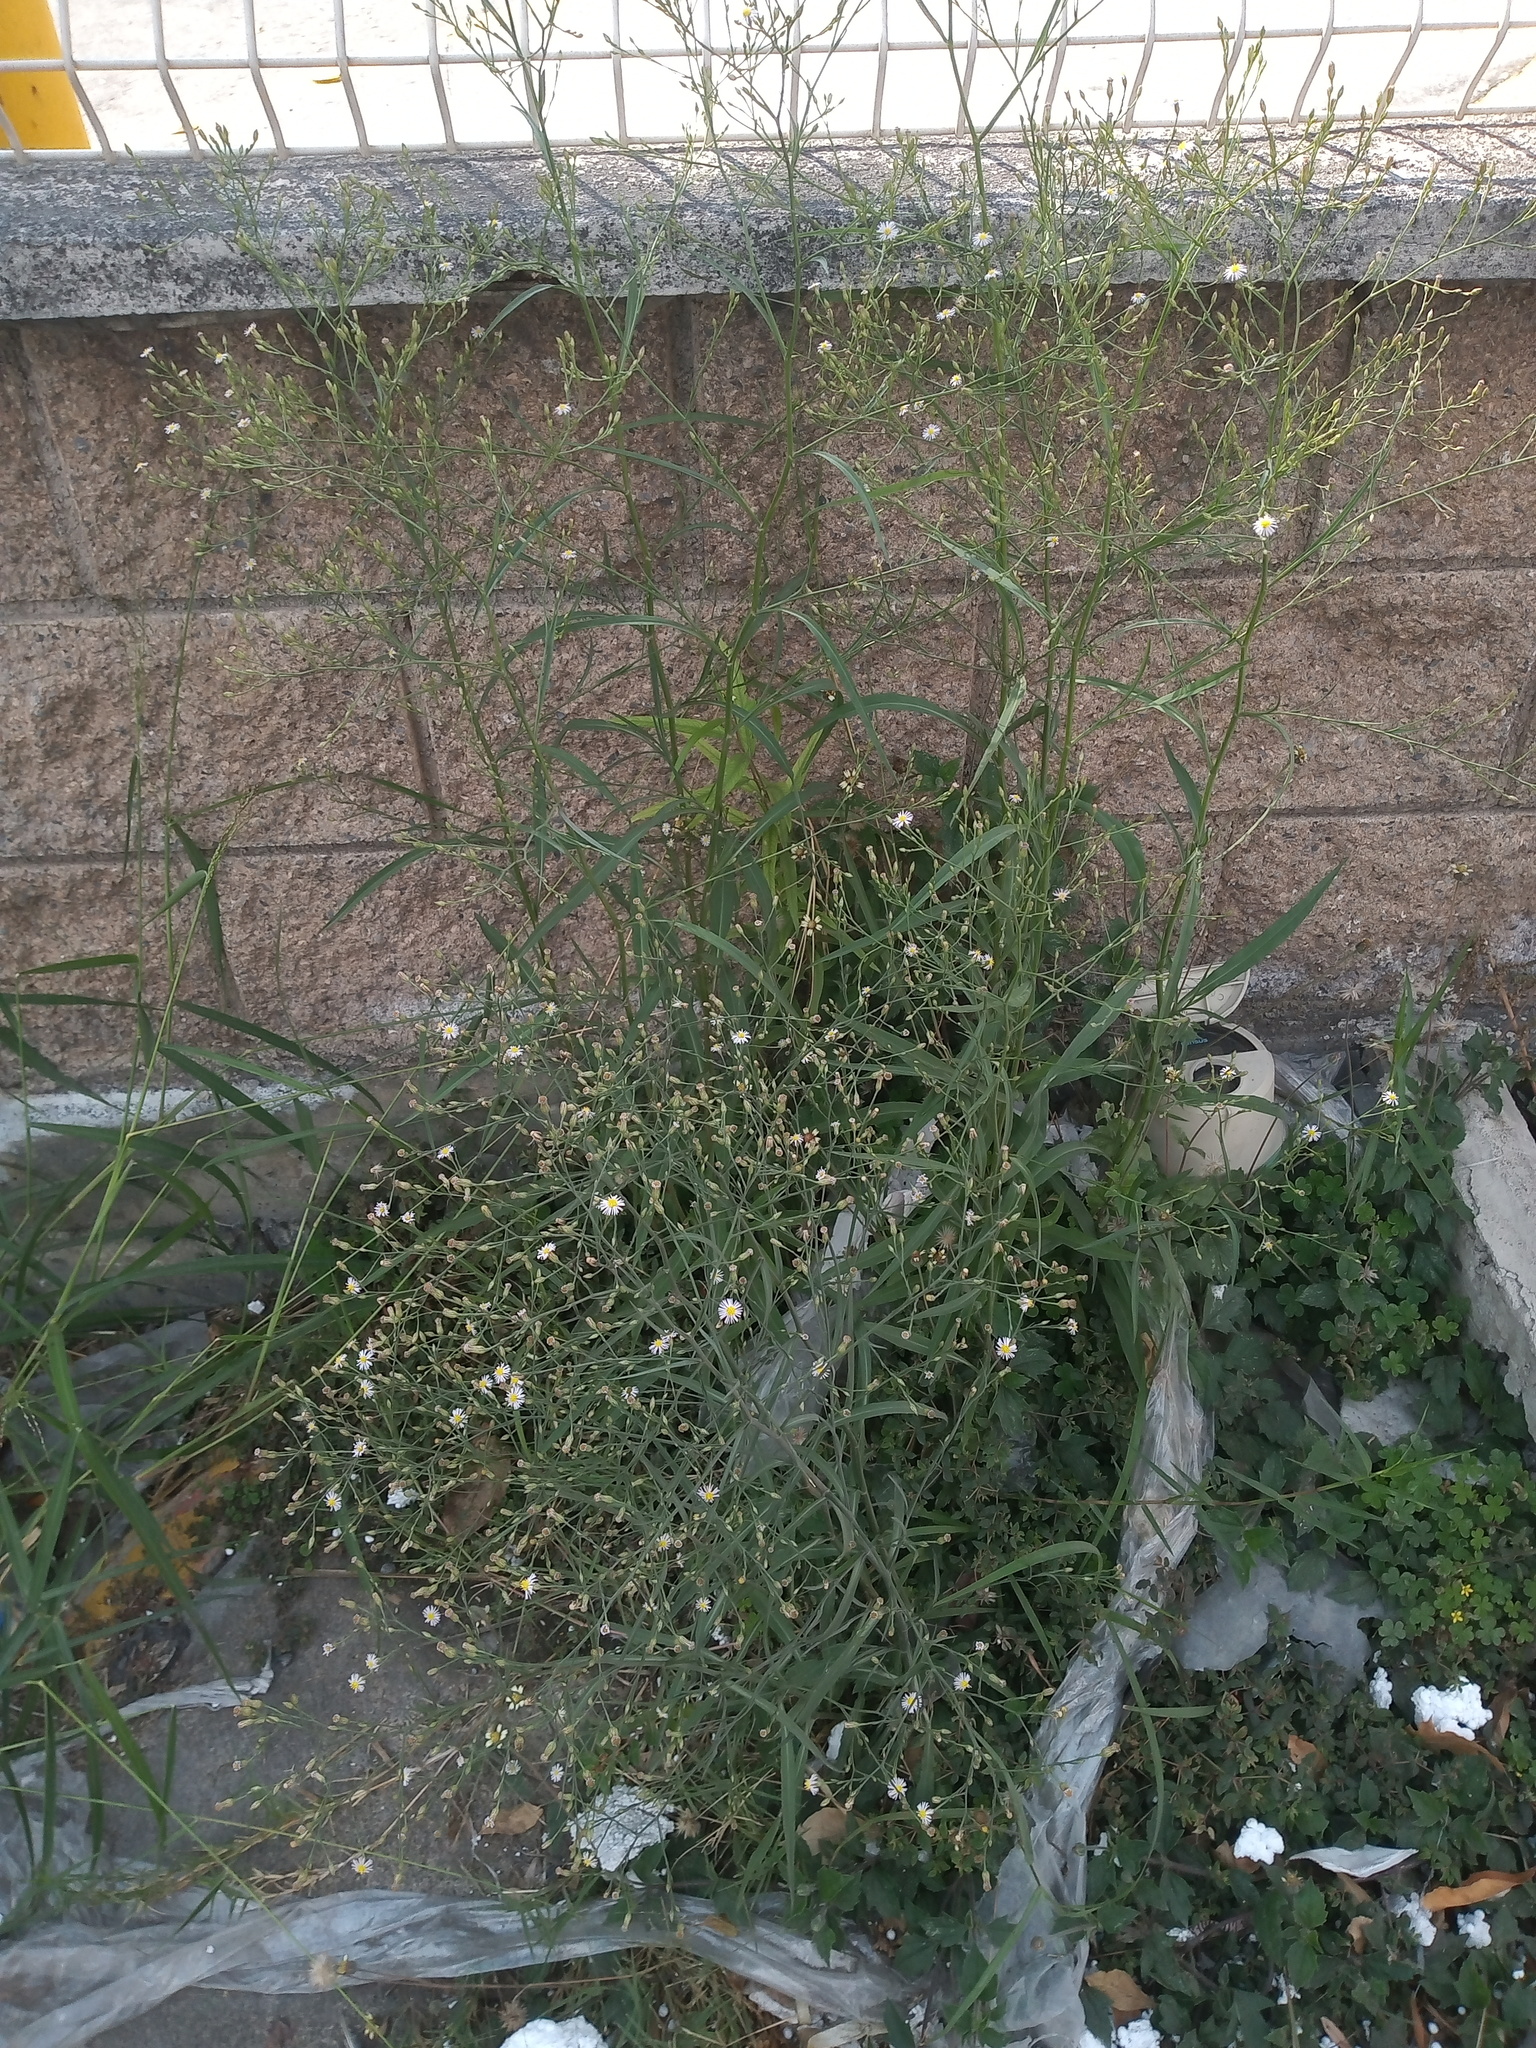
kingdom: Plantae
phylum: Tracheophyta
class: Magnoliopsida
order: Asterales
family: Asteraceae
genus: Symphyotrichum
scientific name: Symphyotrichum subulatum
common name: Annual saltmarsh aster
